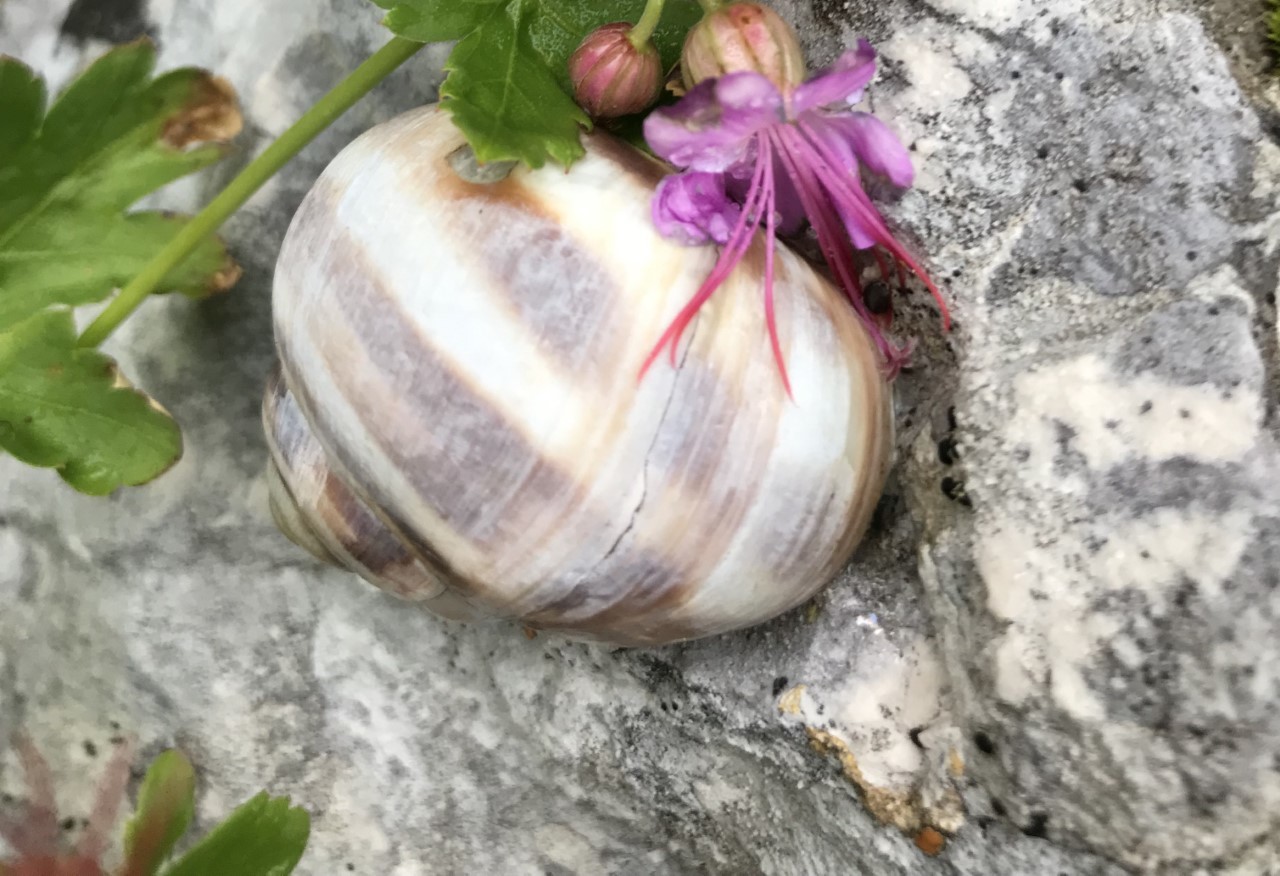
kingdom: Animalia
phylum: Mollusca
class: Gastropoda
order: Stylommatophora
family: Helicidae
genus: Helix
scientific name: Helix dormitoris
